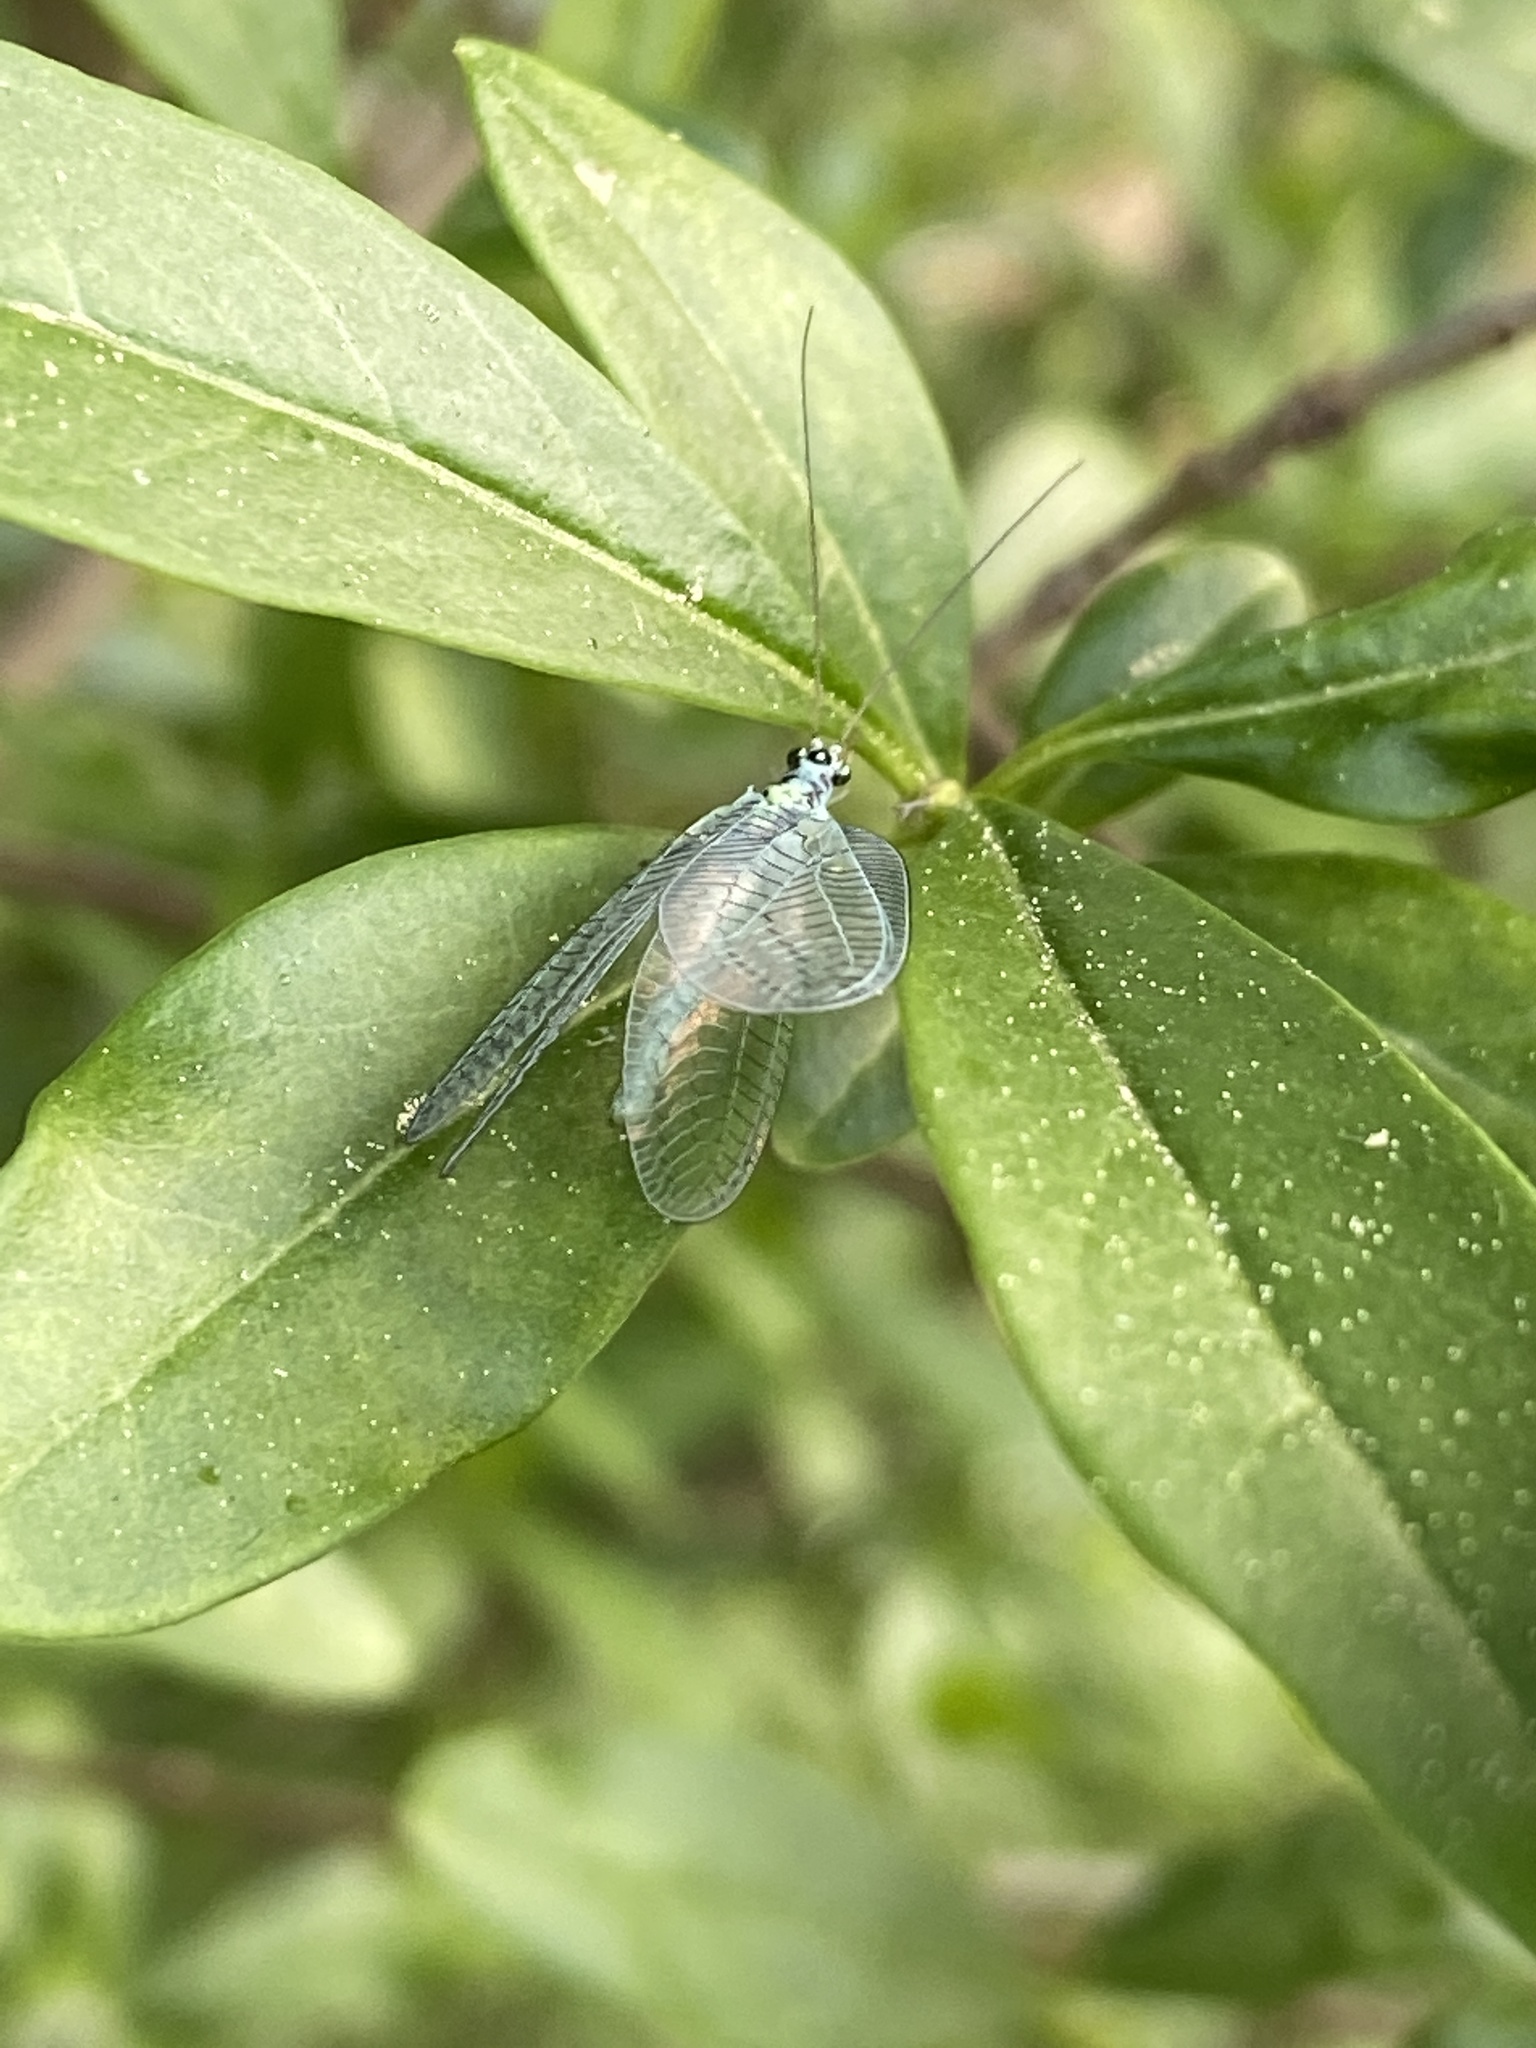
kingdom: Animalia
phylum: Arthropoda
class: Insecta
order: Neuroptera
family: Chrysopidae
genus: Chrysopa
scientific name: Chrysopa perla
